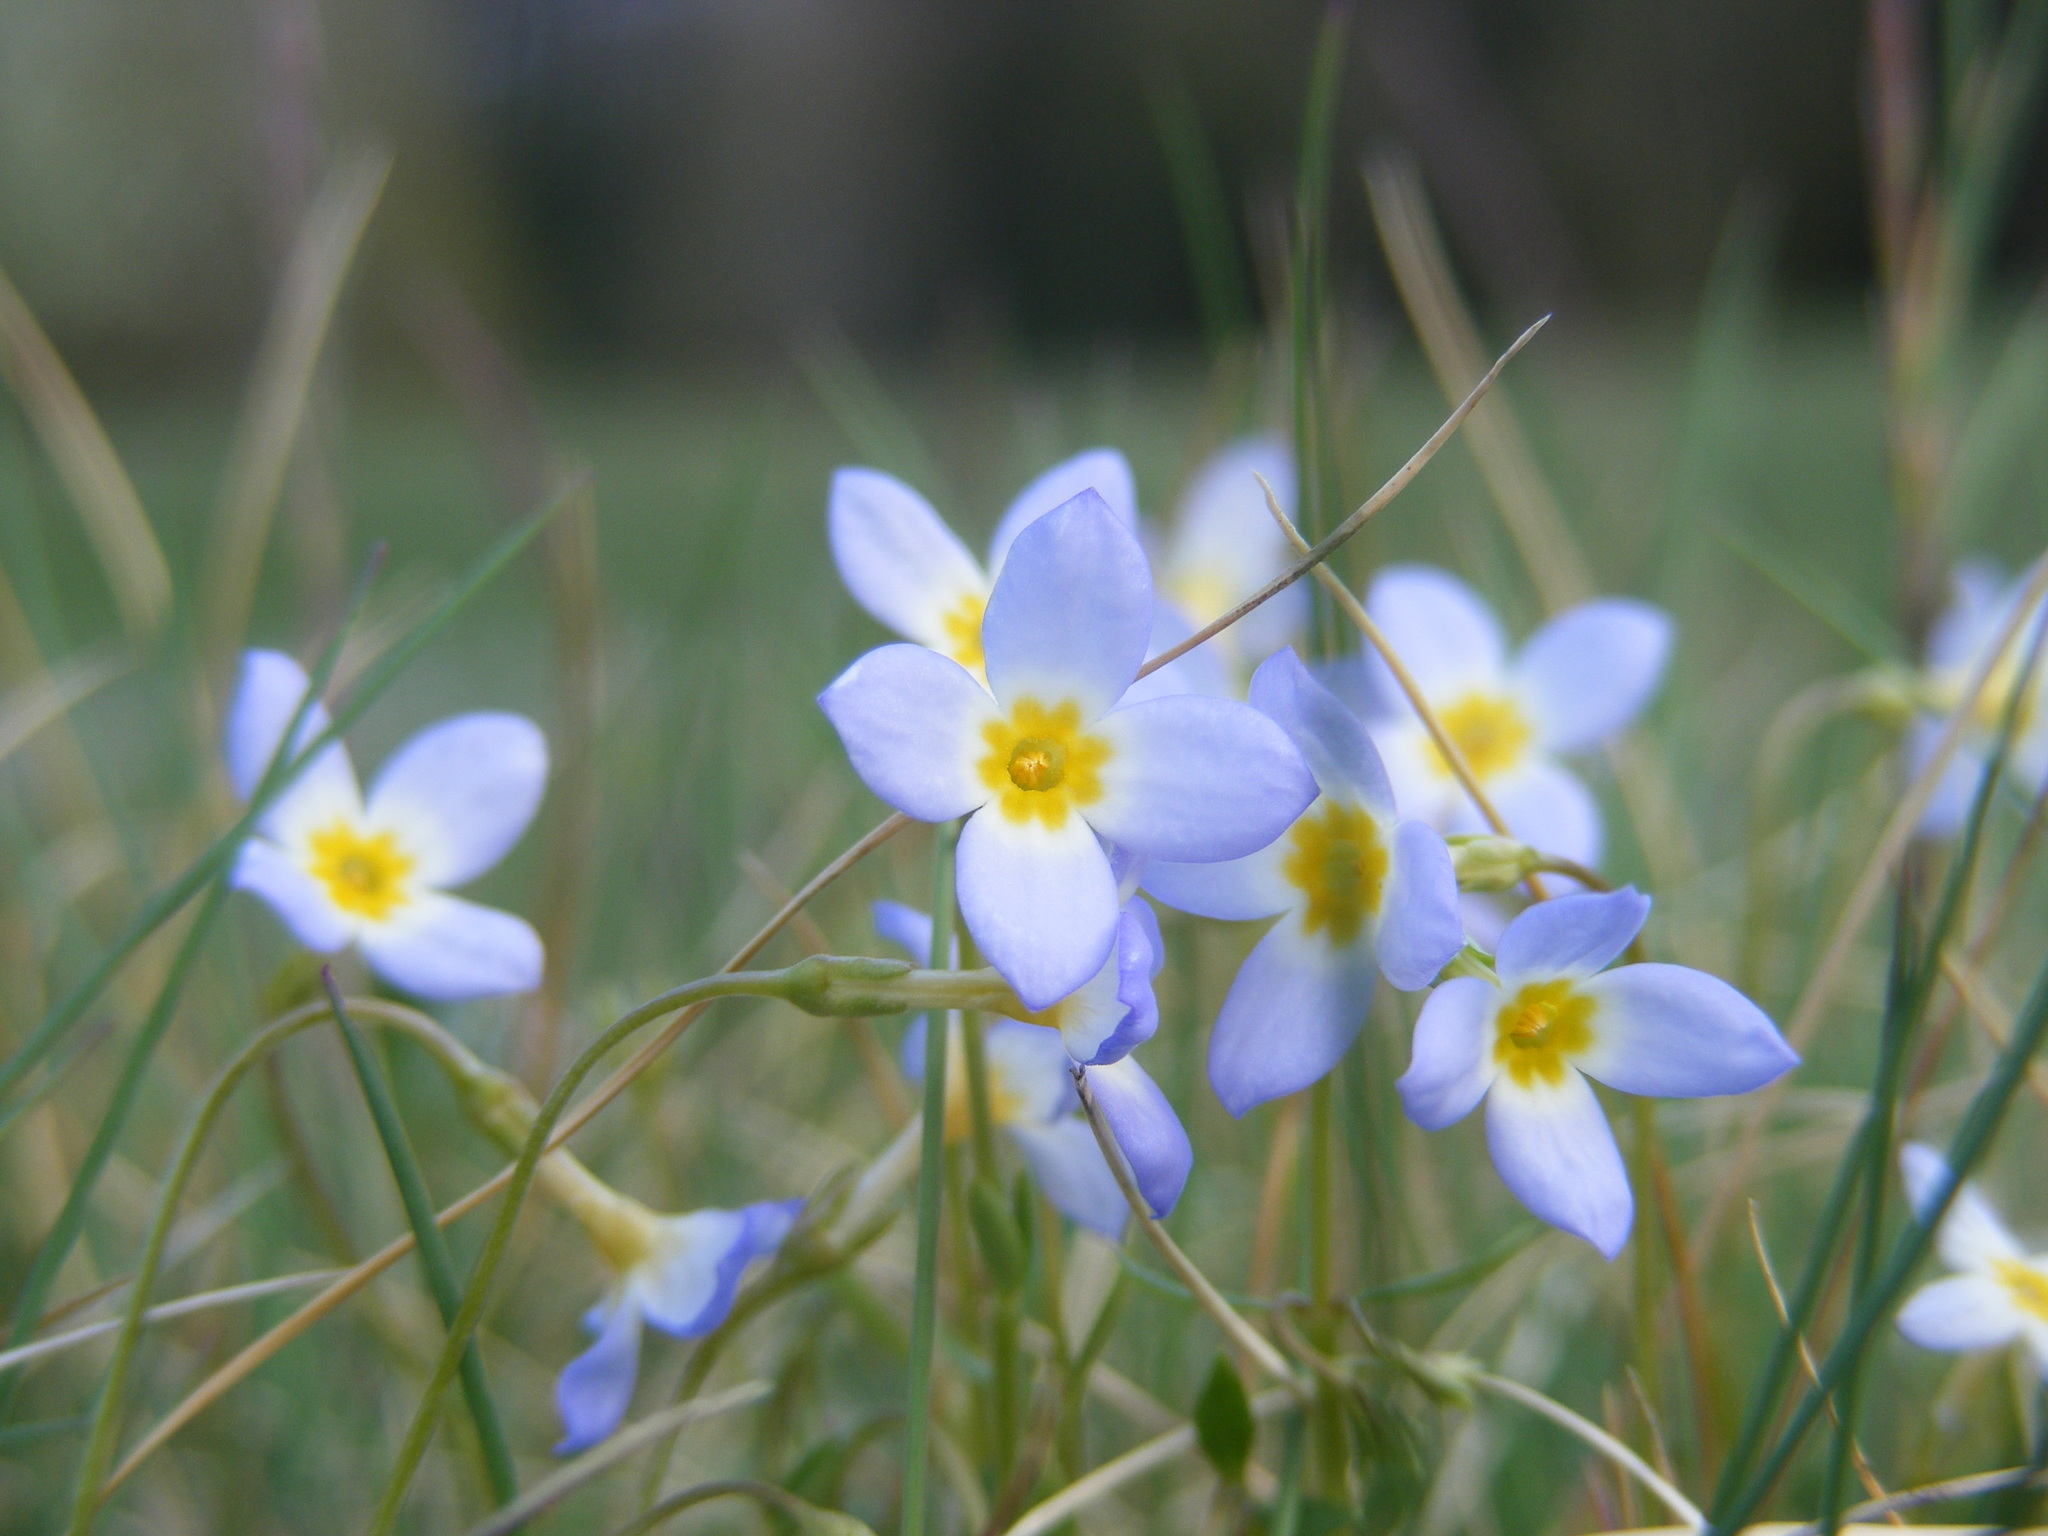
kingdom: Plantae
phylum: Tracheophyta
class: Magnoliopsida
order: Gentianales
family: Rubiaceae
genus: Houstonia
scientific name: Houstonia caerulea
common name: Bluets
